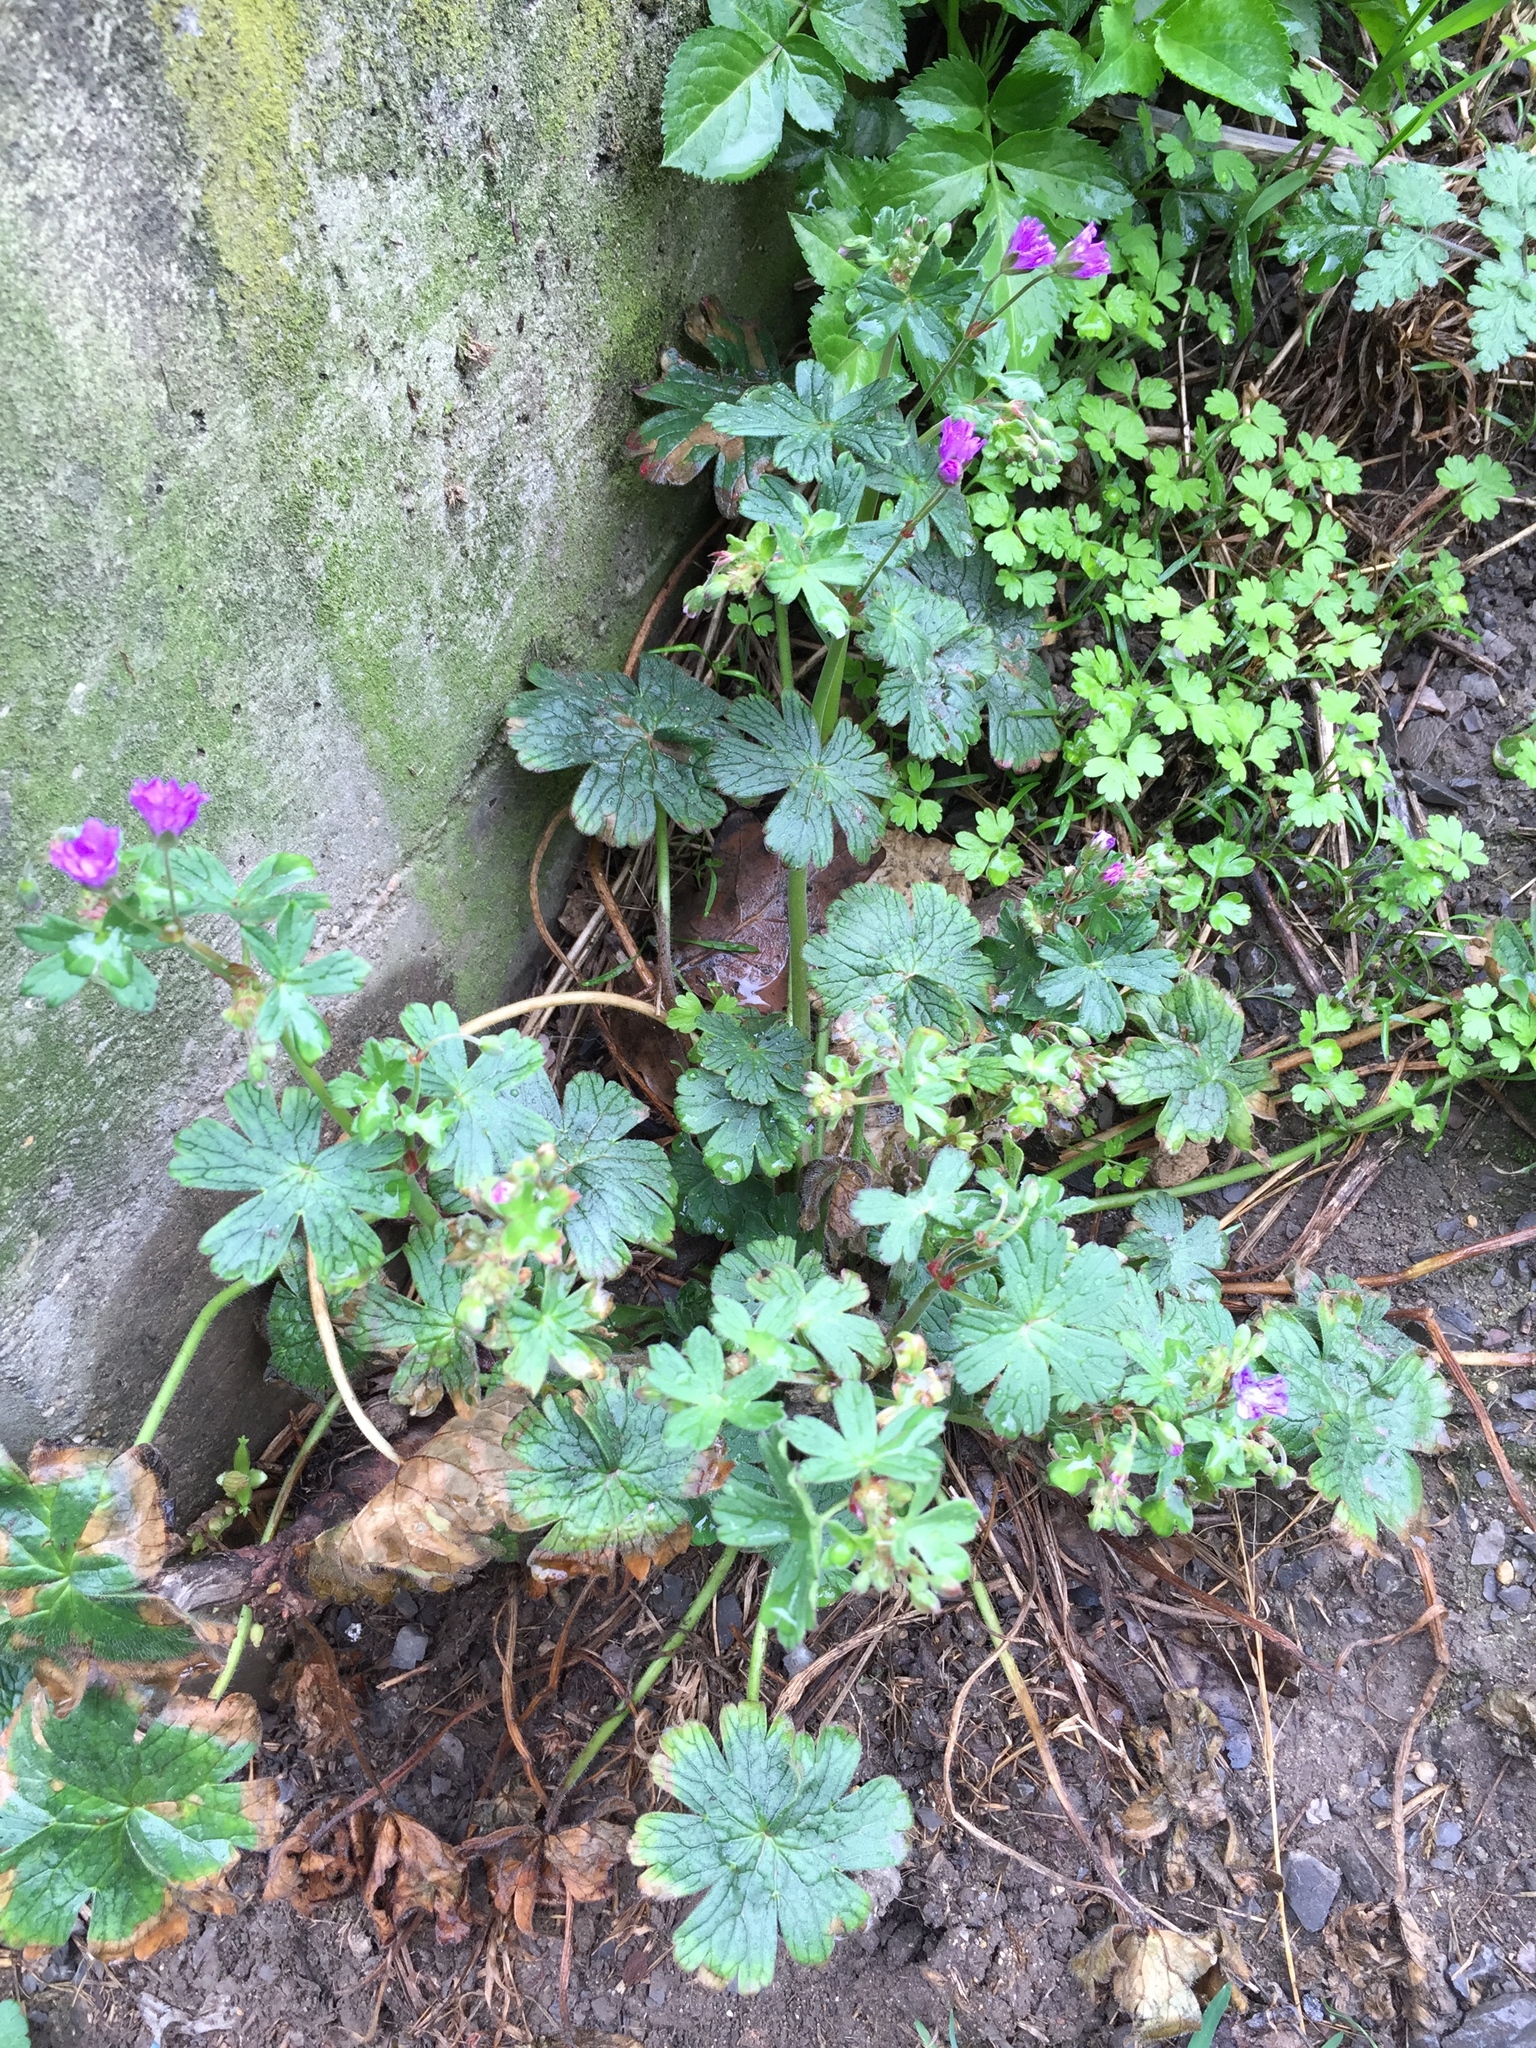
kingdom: Plantae
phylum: Tracheophyta
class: Magnoliopsida
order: Geraniales
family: Geraniaceae
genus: Geranium
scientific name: Geranium pyrenaicum
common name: Hedgerow crane's-bill
